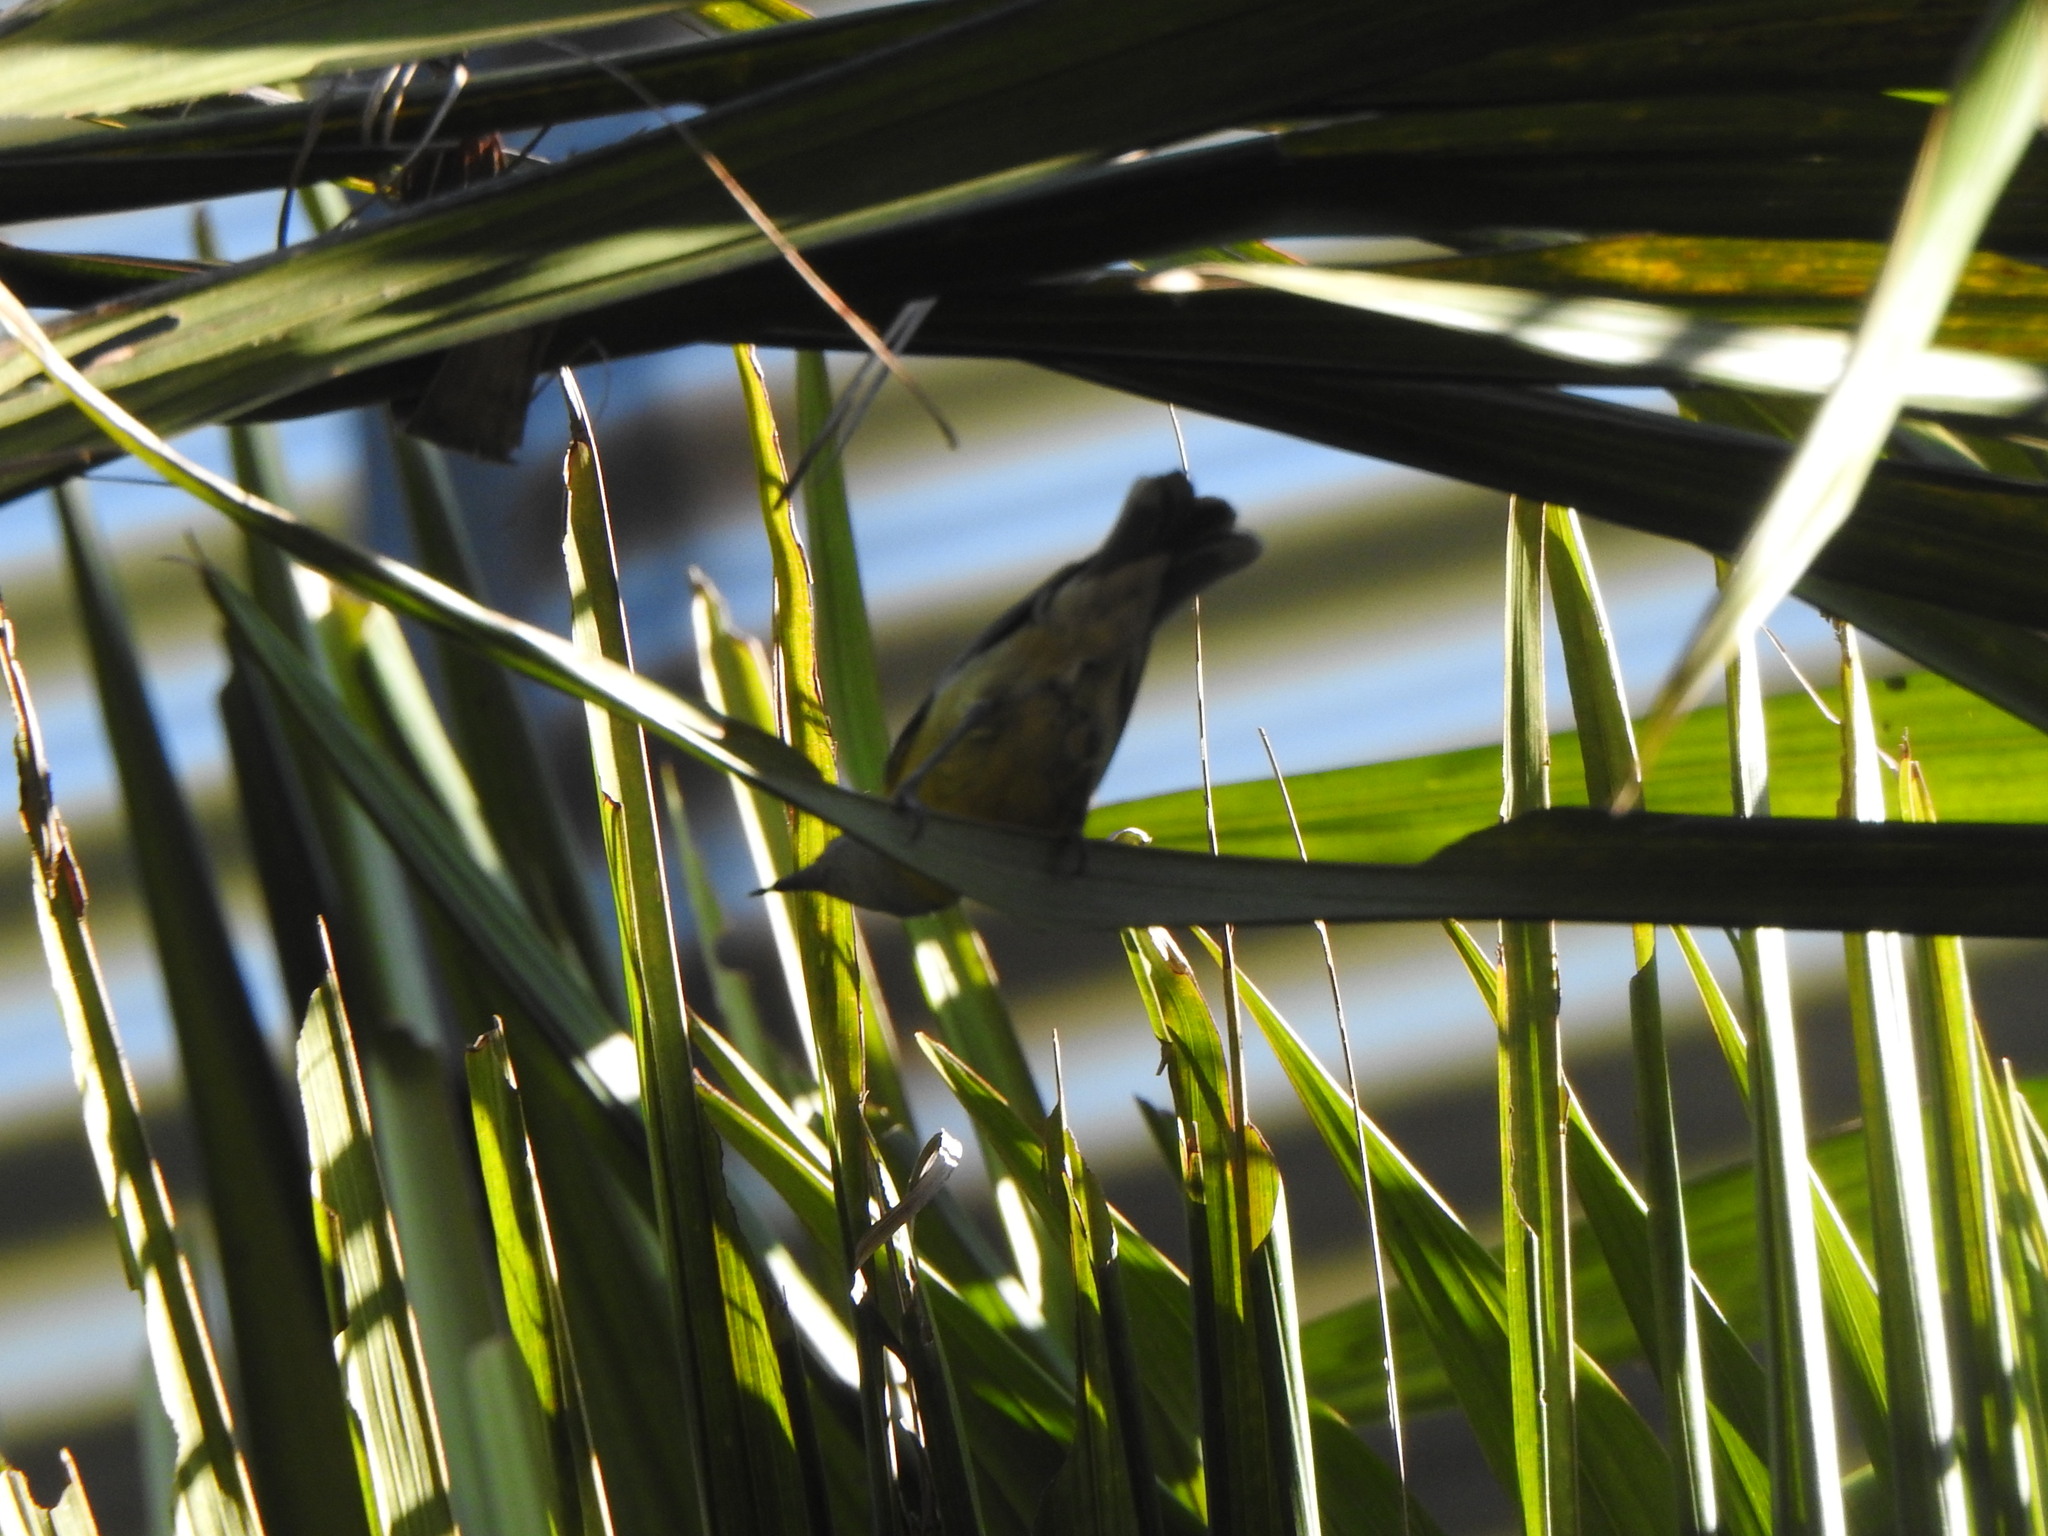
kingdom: Animalia
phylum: Chordata
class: Aves
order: Passeriformes
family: Thraupidae
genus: Coereba
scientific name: Coereba flaveola
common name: Bananaquit
